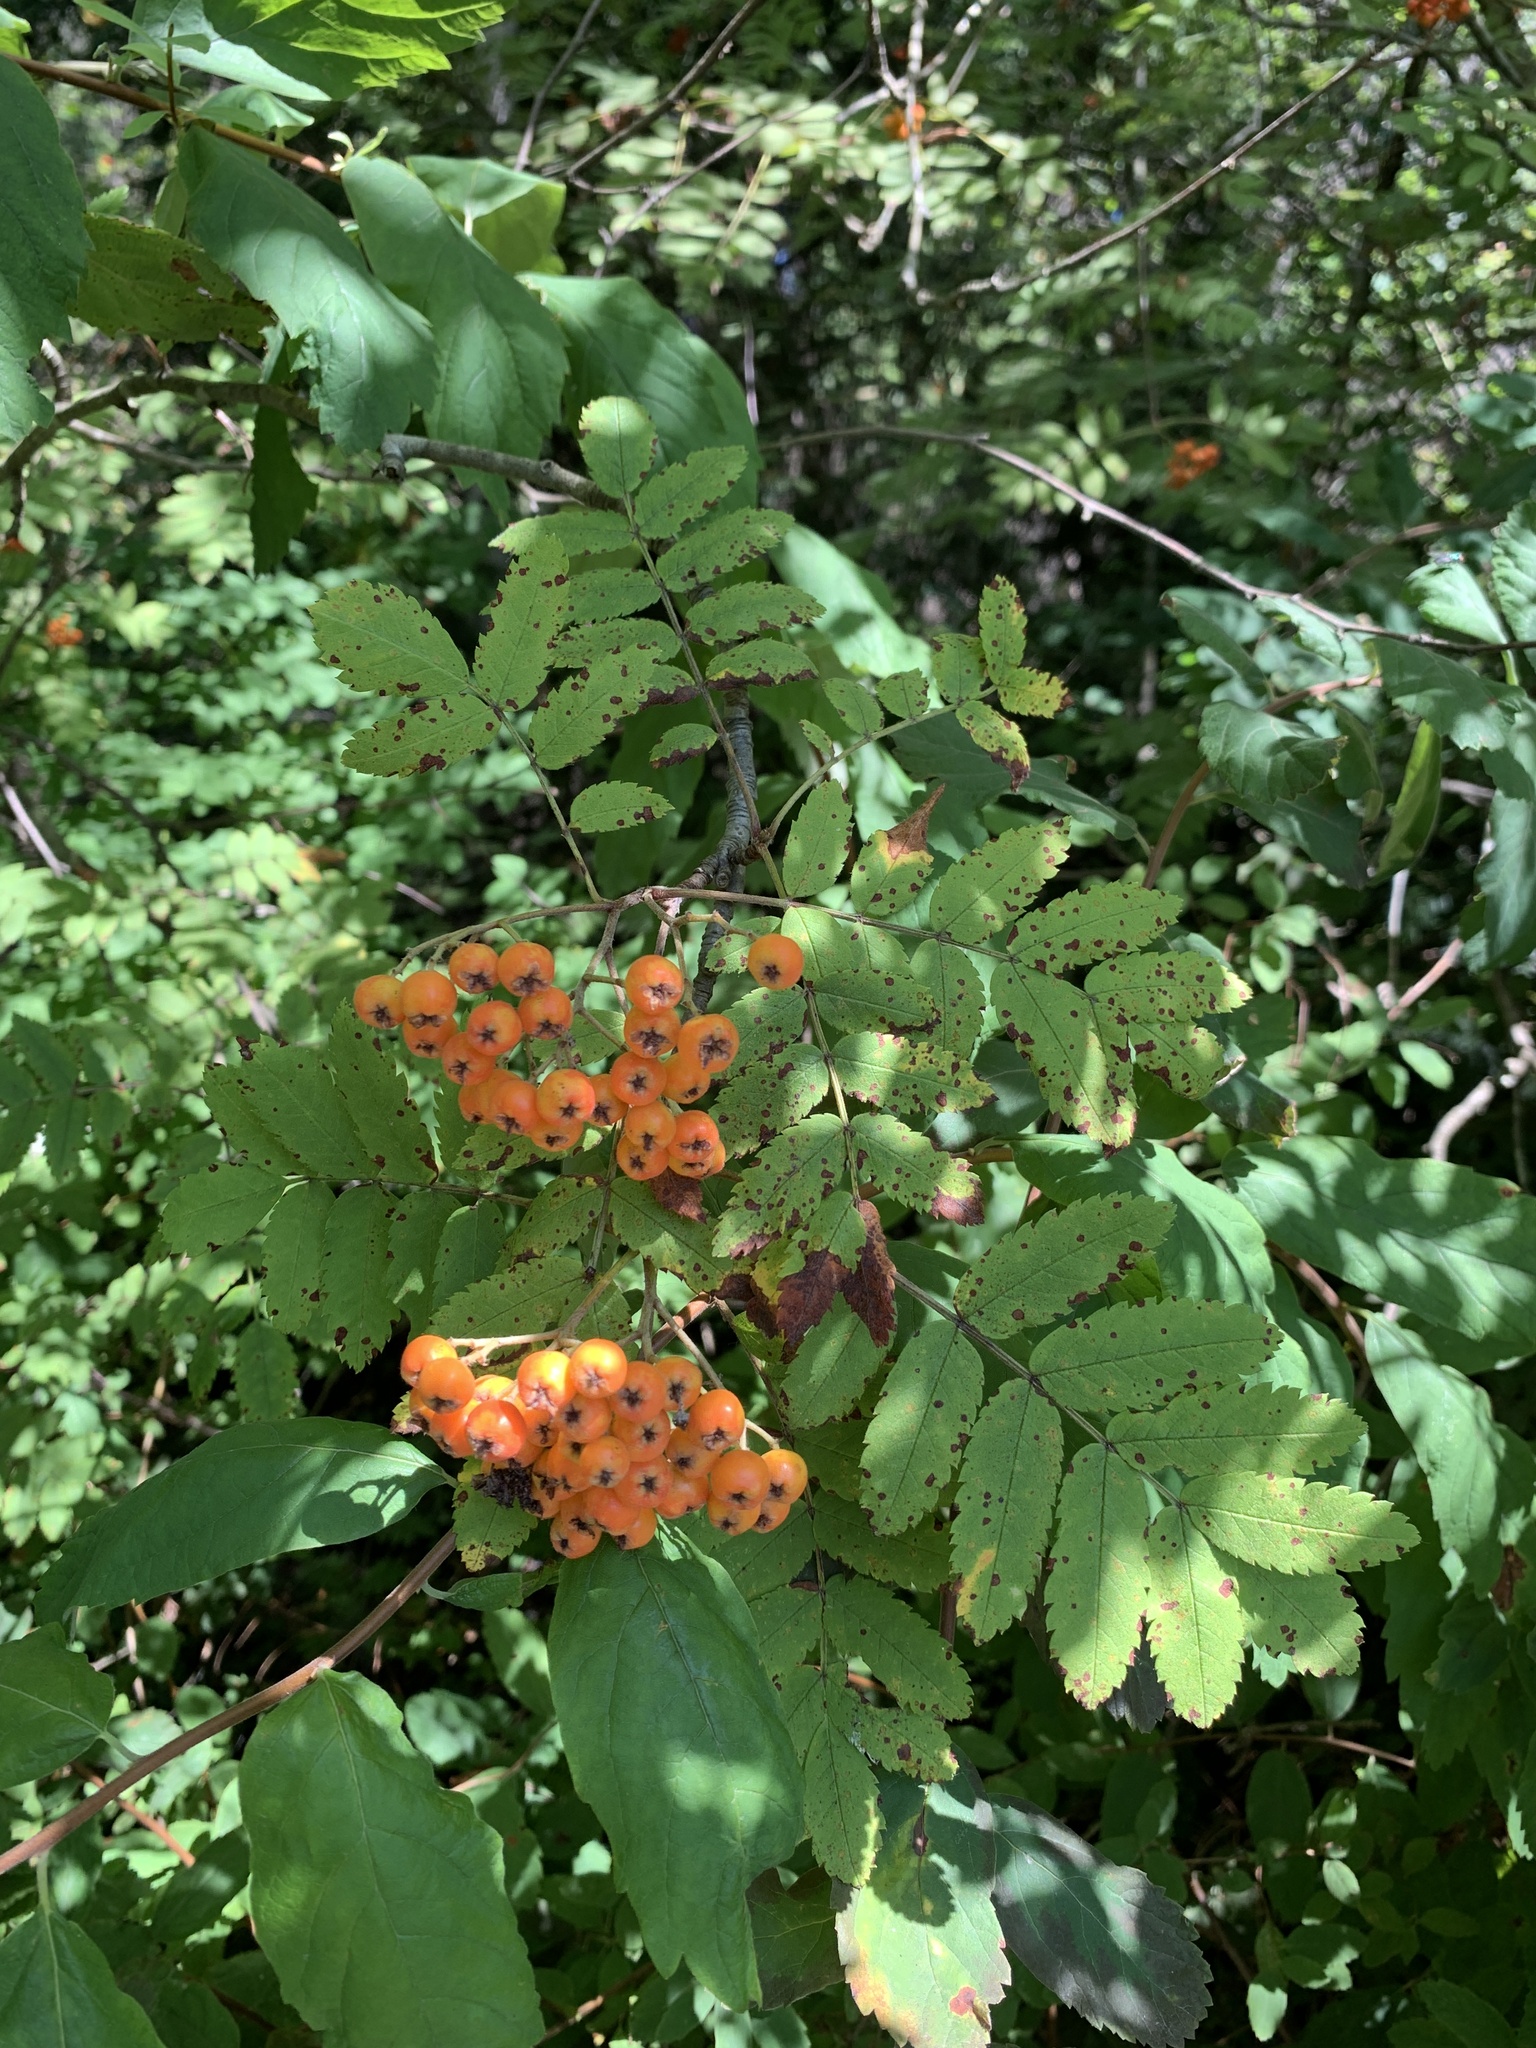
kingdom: Plantae
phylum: Tracheophyta
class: Magnoliopsida
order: Rosales
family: Rosaceae
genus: Sorbus
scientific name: Sorbus aucuparia
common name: Rowan
